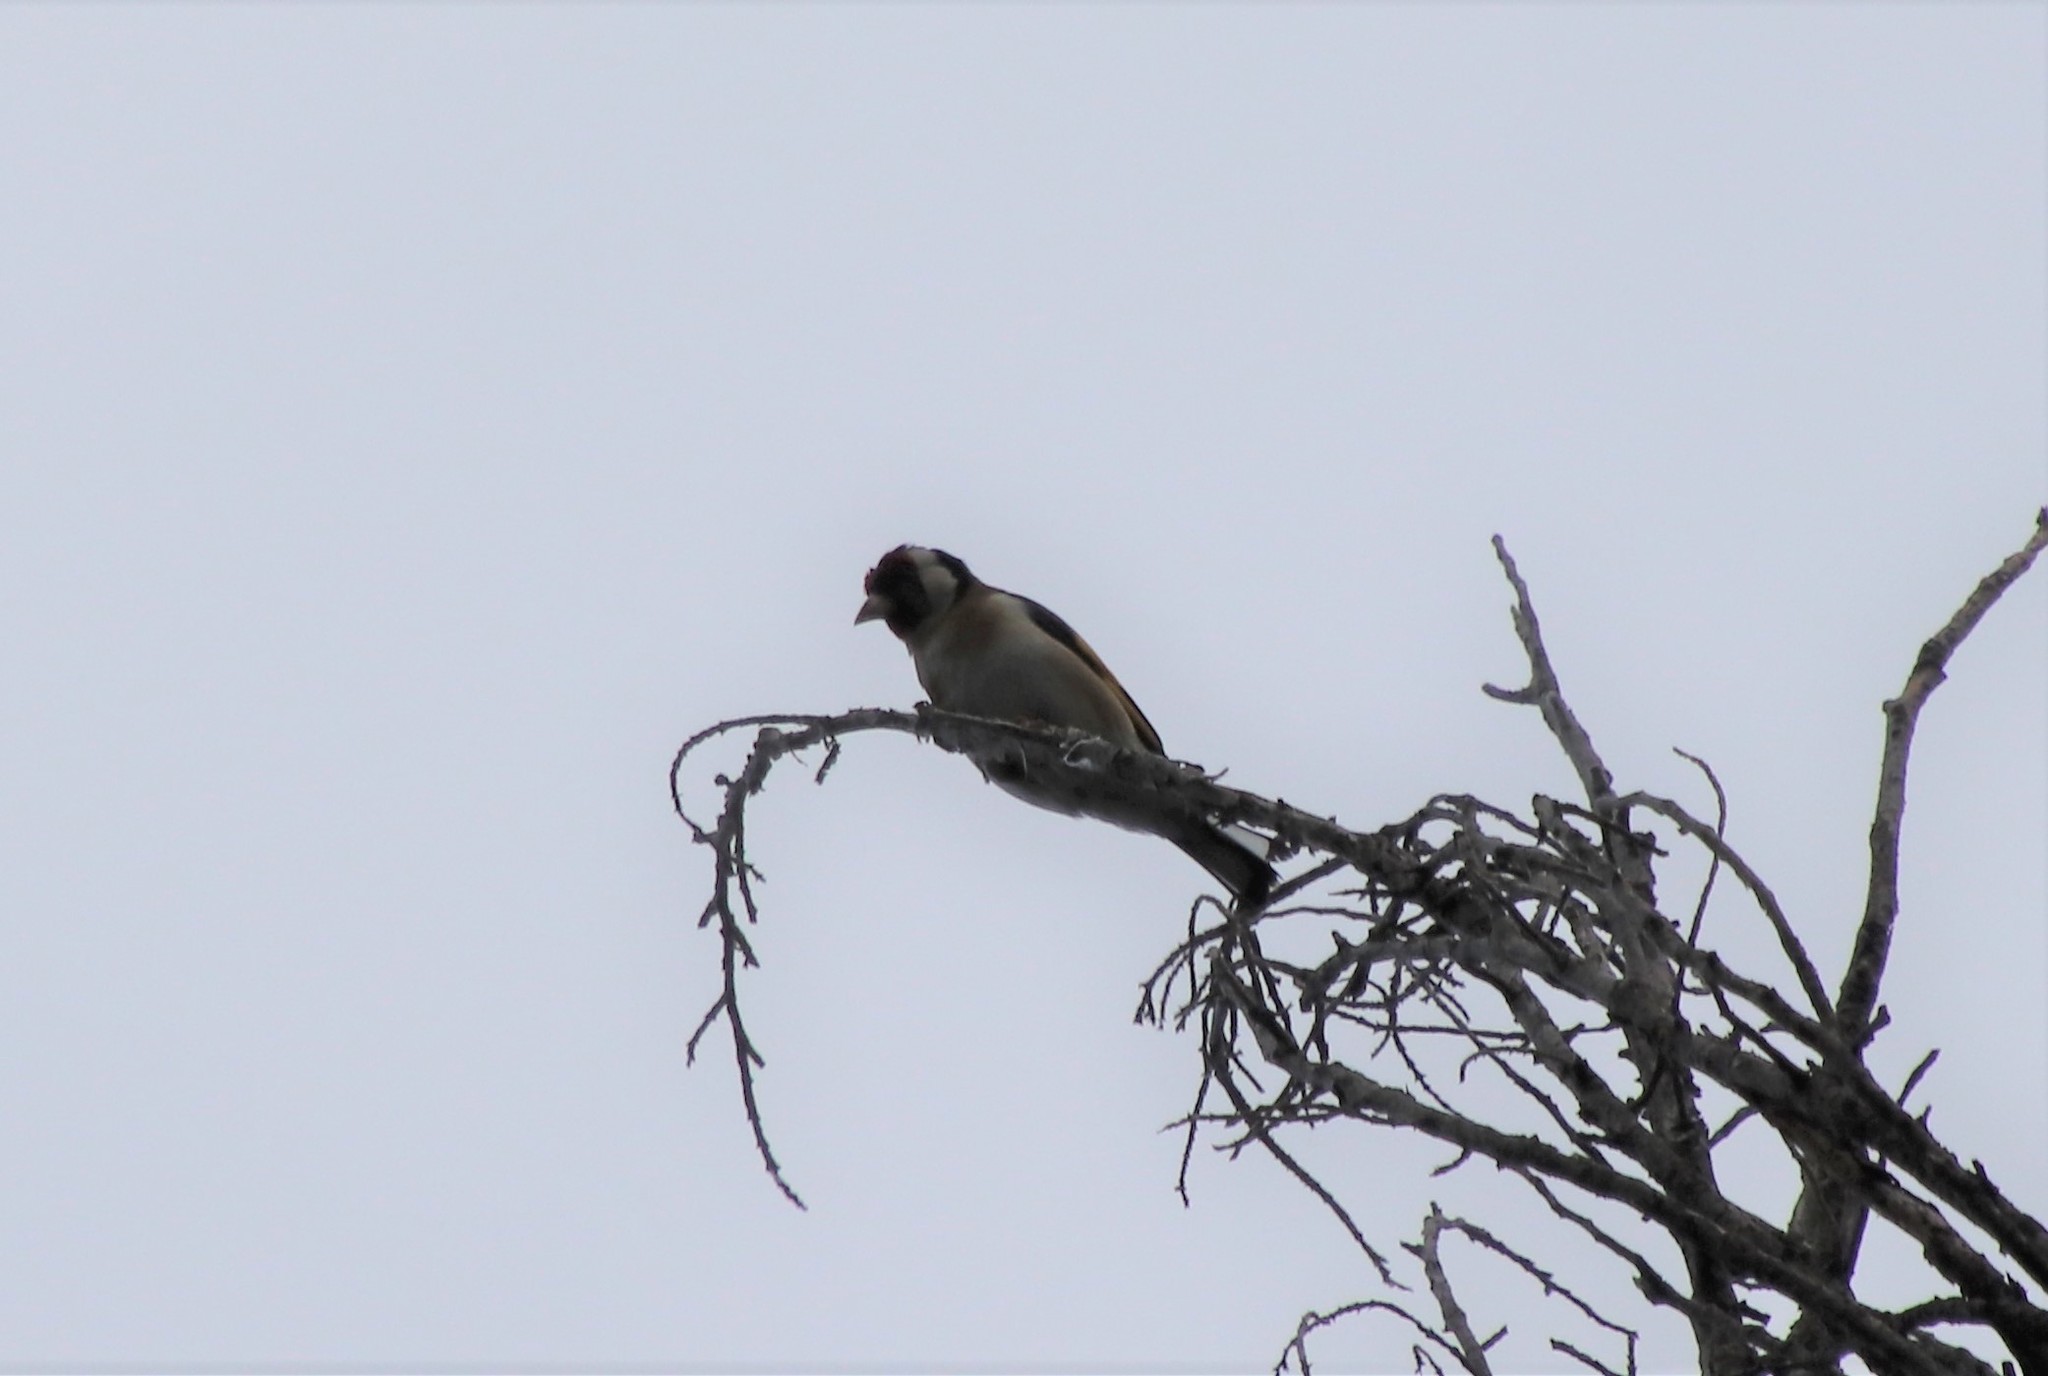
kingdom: Animalia
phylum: Chordata
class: Aves
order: Passeriformes
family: Fringillidae
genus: Carduelis
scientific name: Carduelis carduelis
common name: European goldfinch
